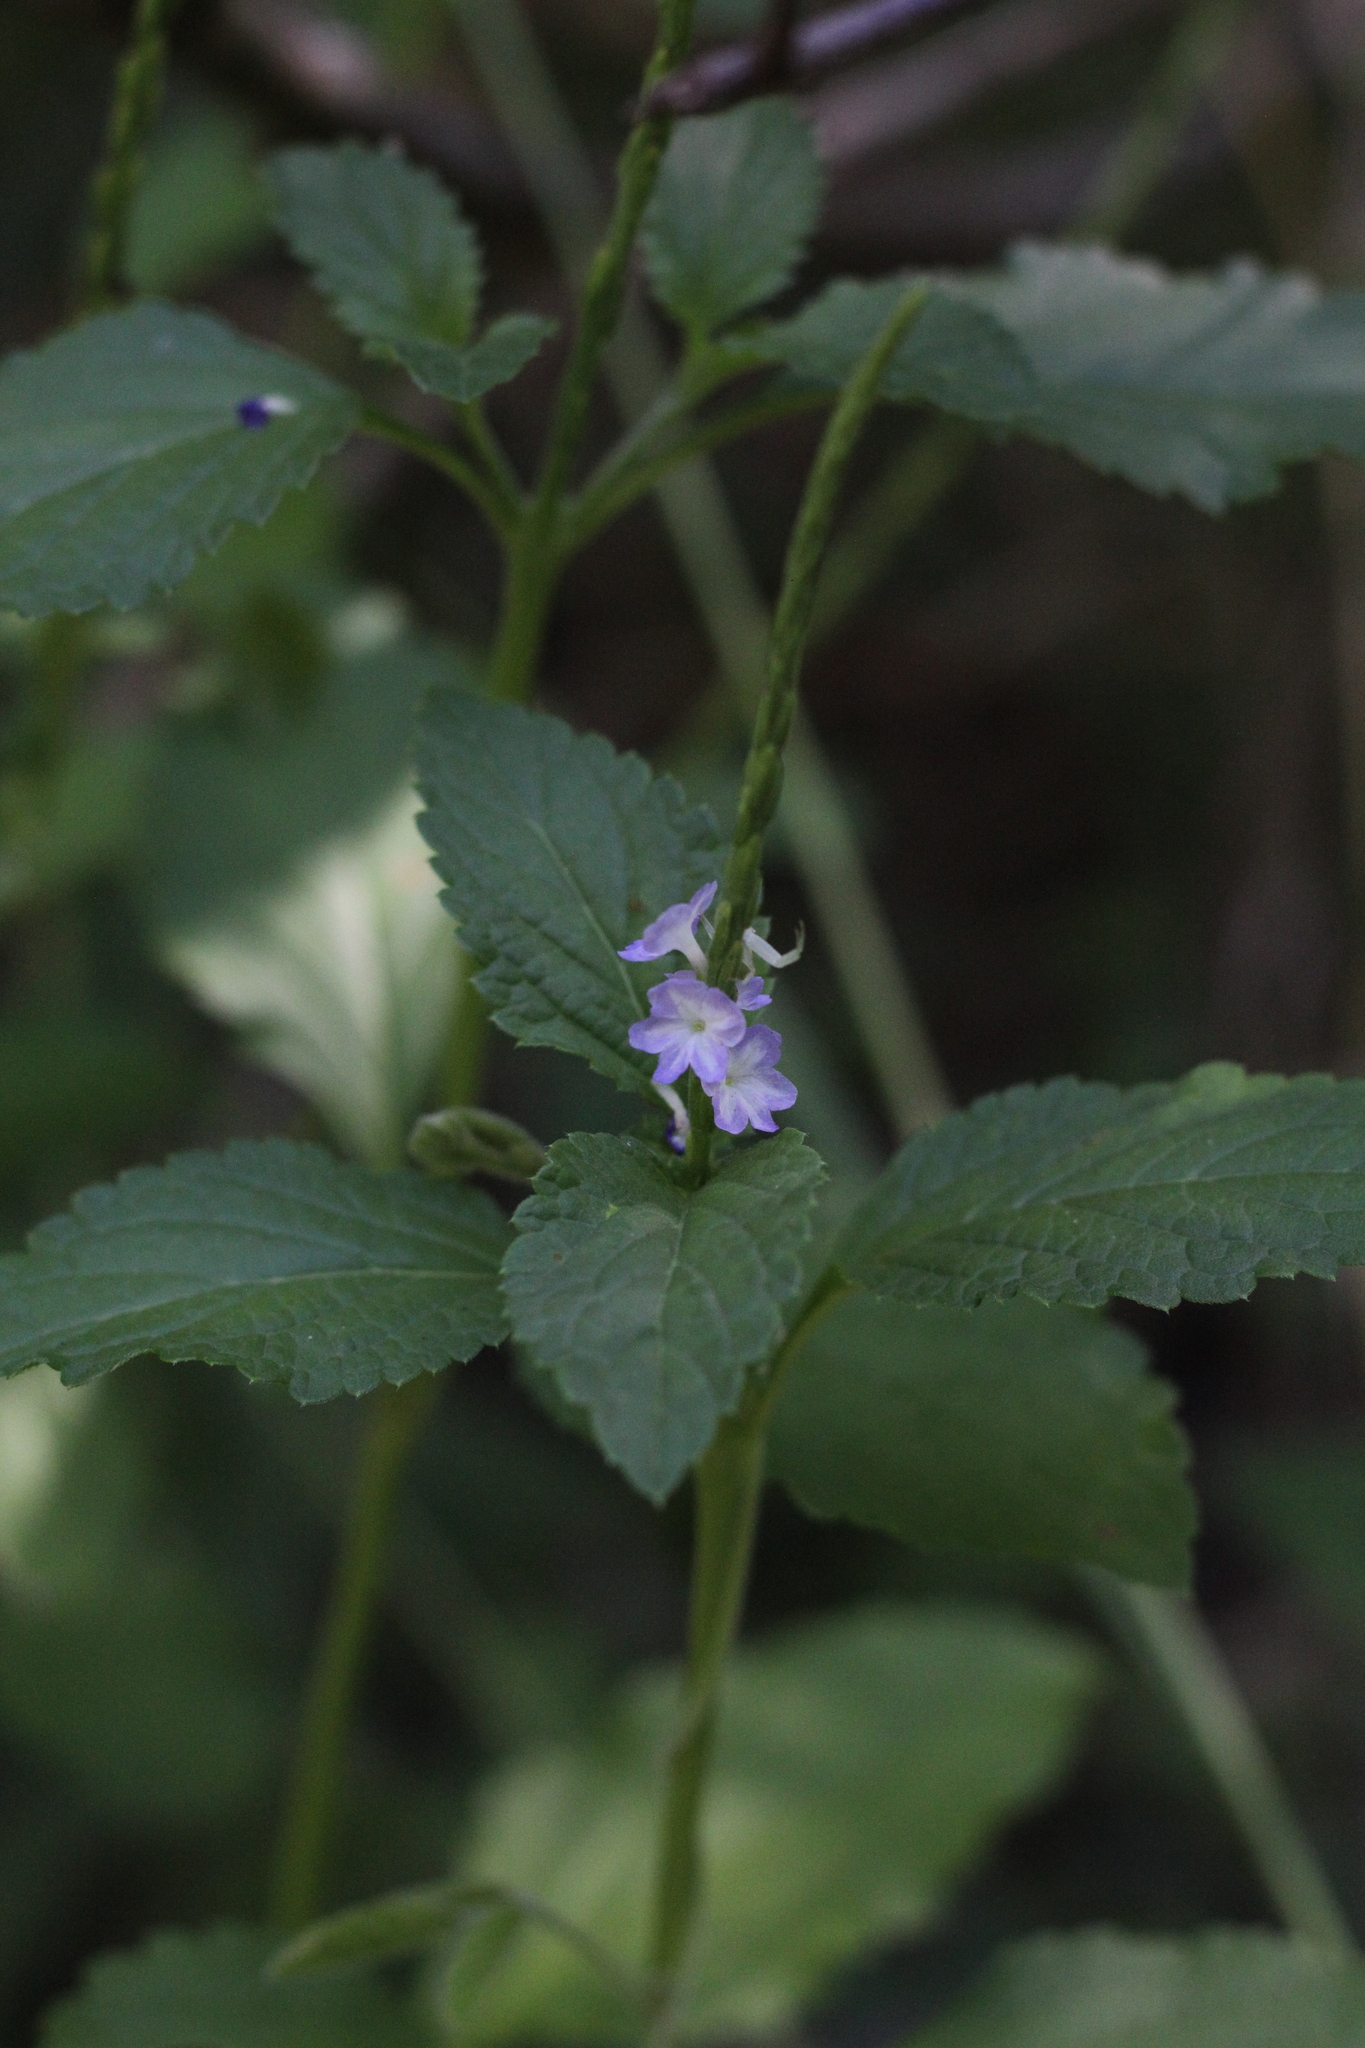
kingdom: Plantae
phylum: Tracheophyta
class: Magnoliopsida
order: Lamiales
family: Verbenaceae
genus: Stachytarpheta
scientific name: Stachytarpheta cayennensis
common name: Cayenne porterweed
